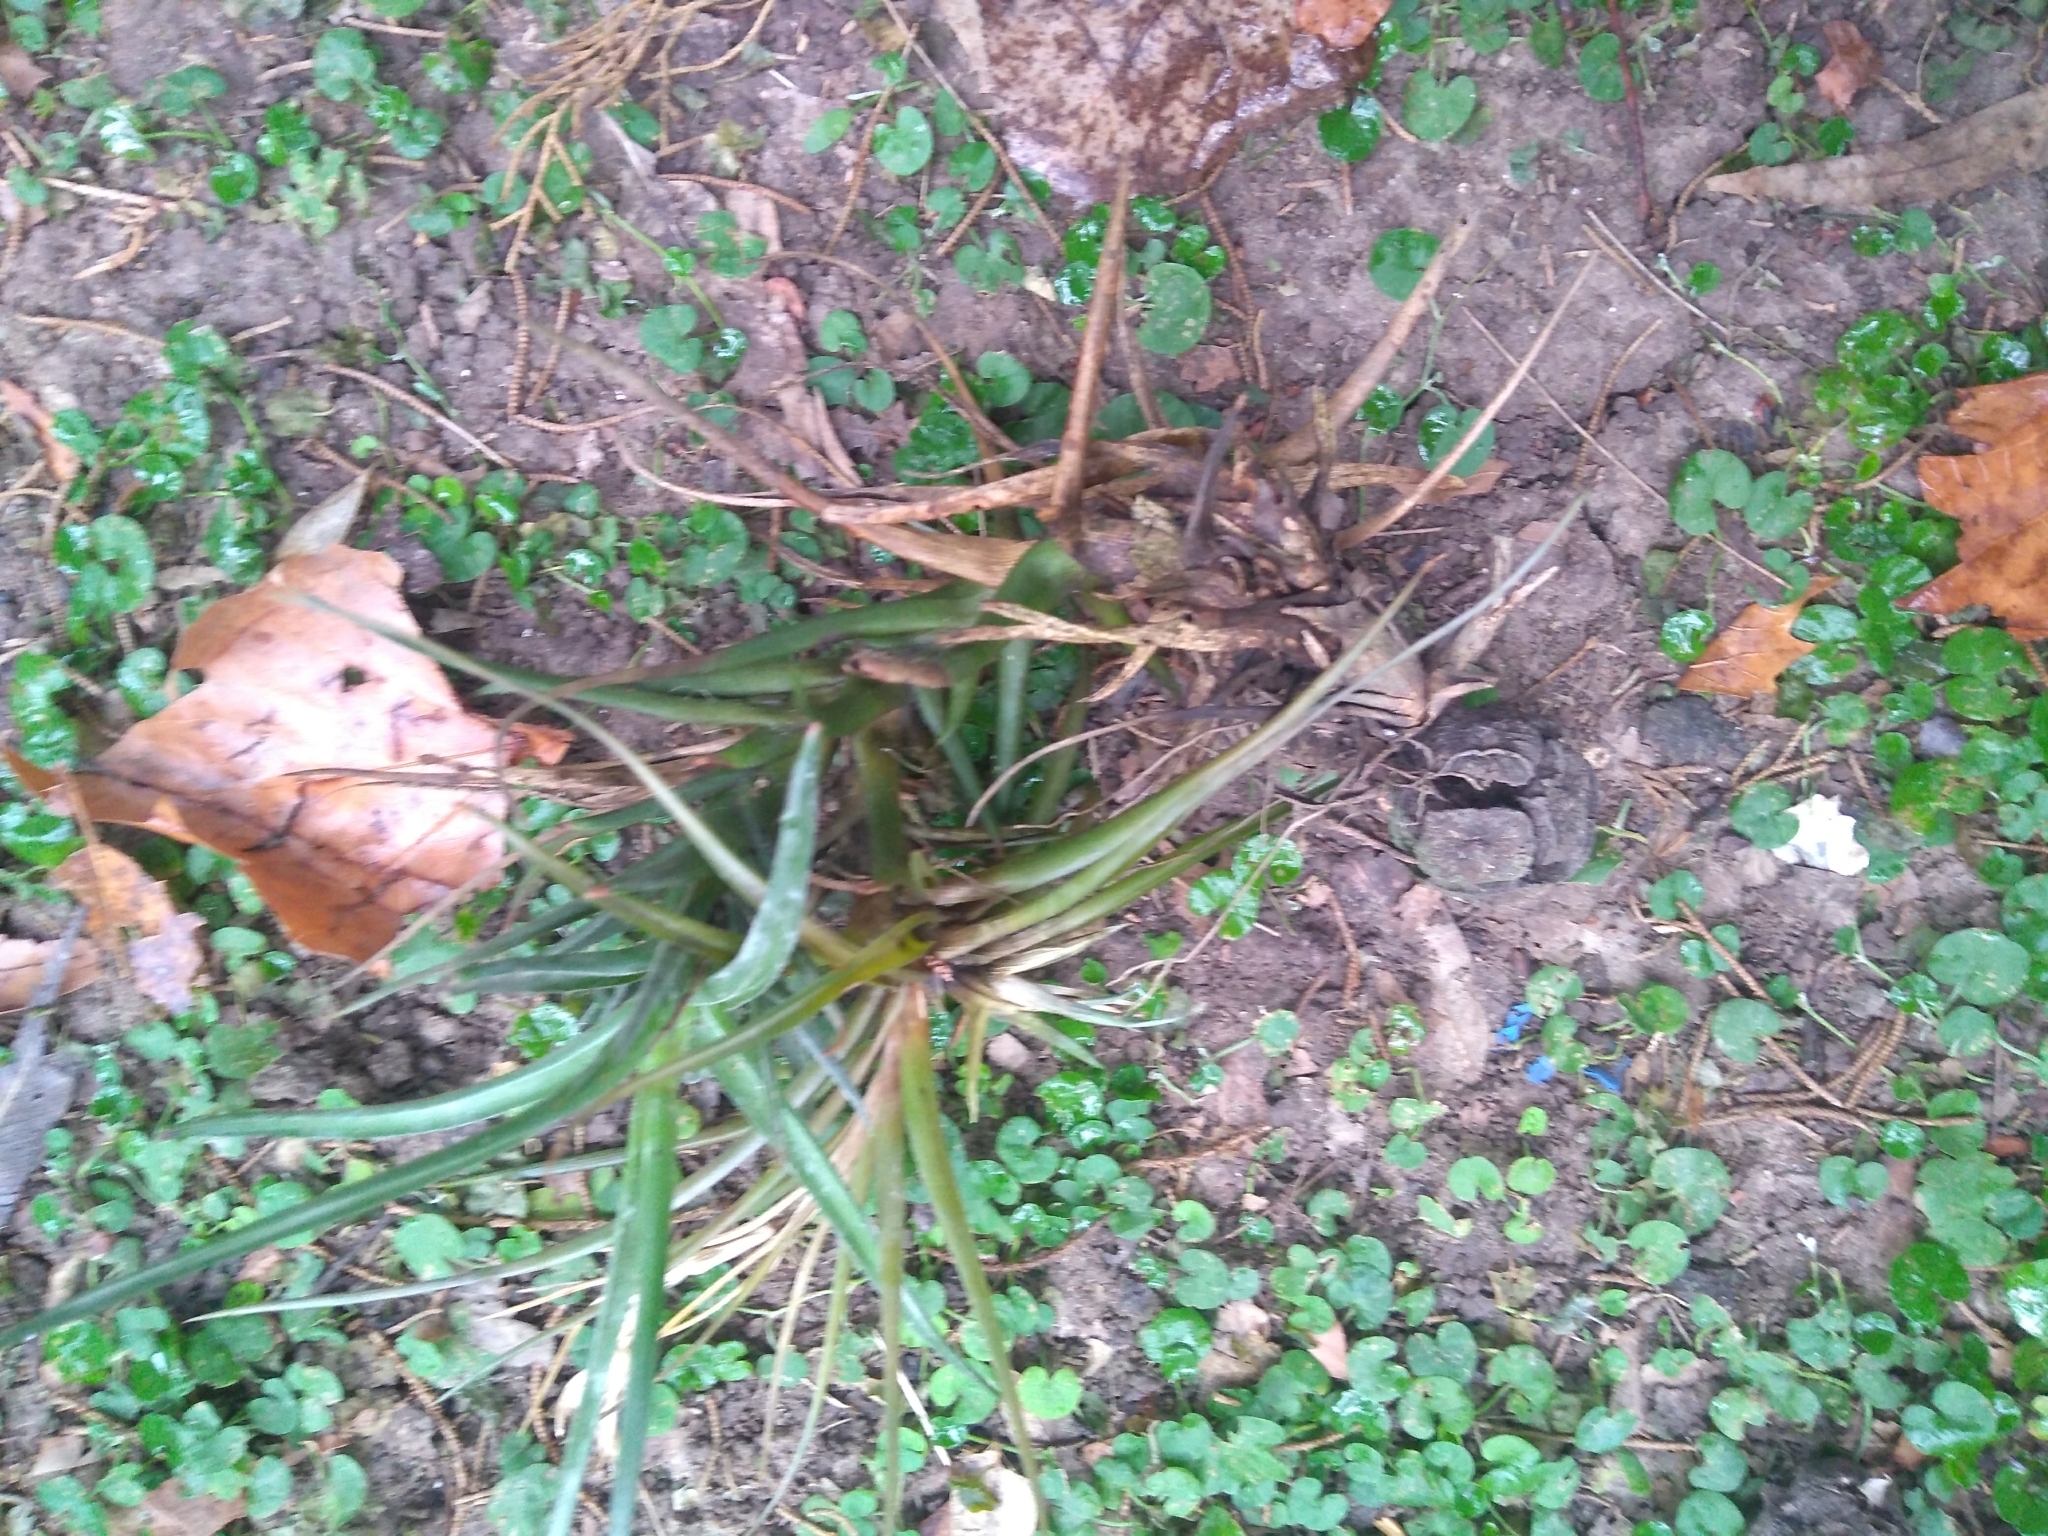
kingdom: Plantae
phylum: Tracheophyta
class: Liliopsida
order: Poales
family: Bromeliaceae
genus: Tillandsia
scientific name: Tillandsia recurvata
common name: Small ballmoss
